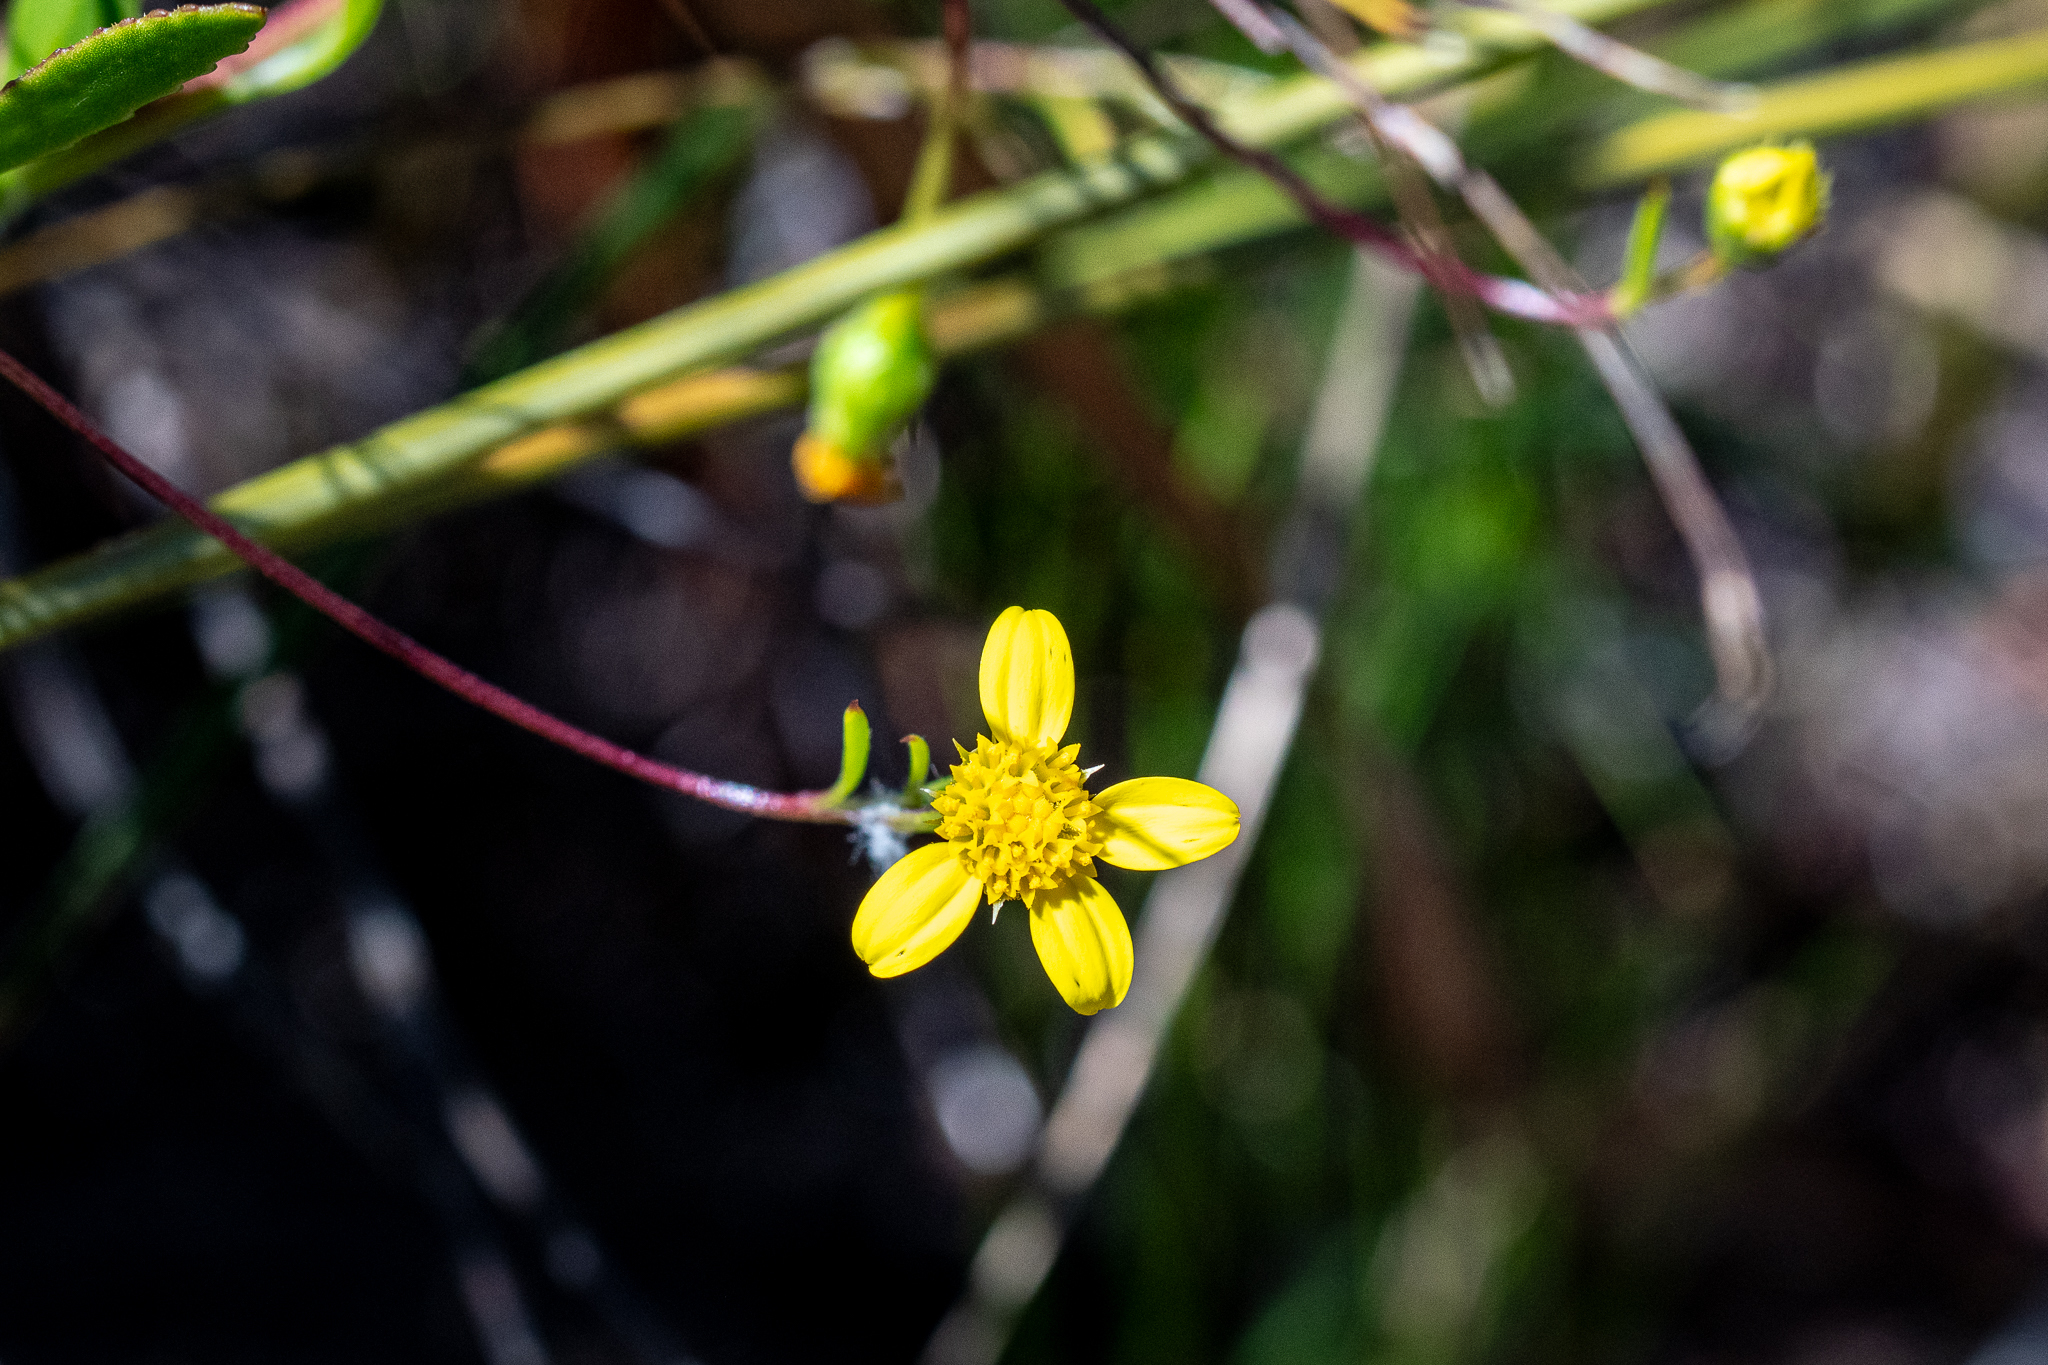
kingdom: Plantae
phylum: Tracheophyta
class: Magnoliopsida
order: Asterales
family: Asteraceae
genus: Osteospermum
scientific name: Osteospermum ciliatum
